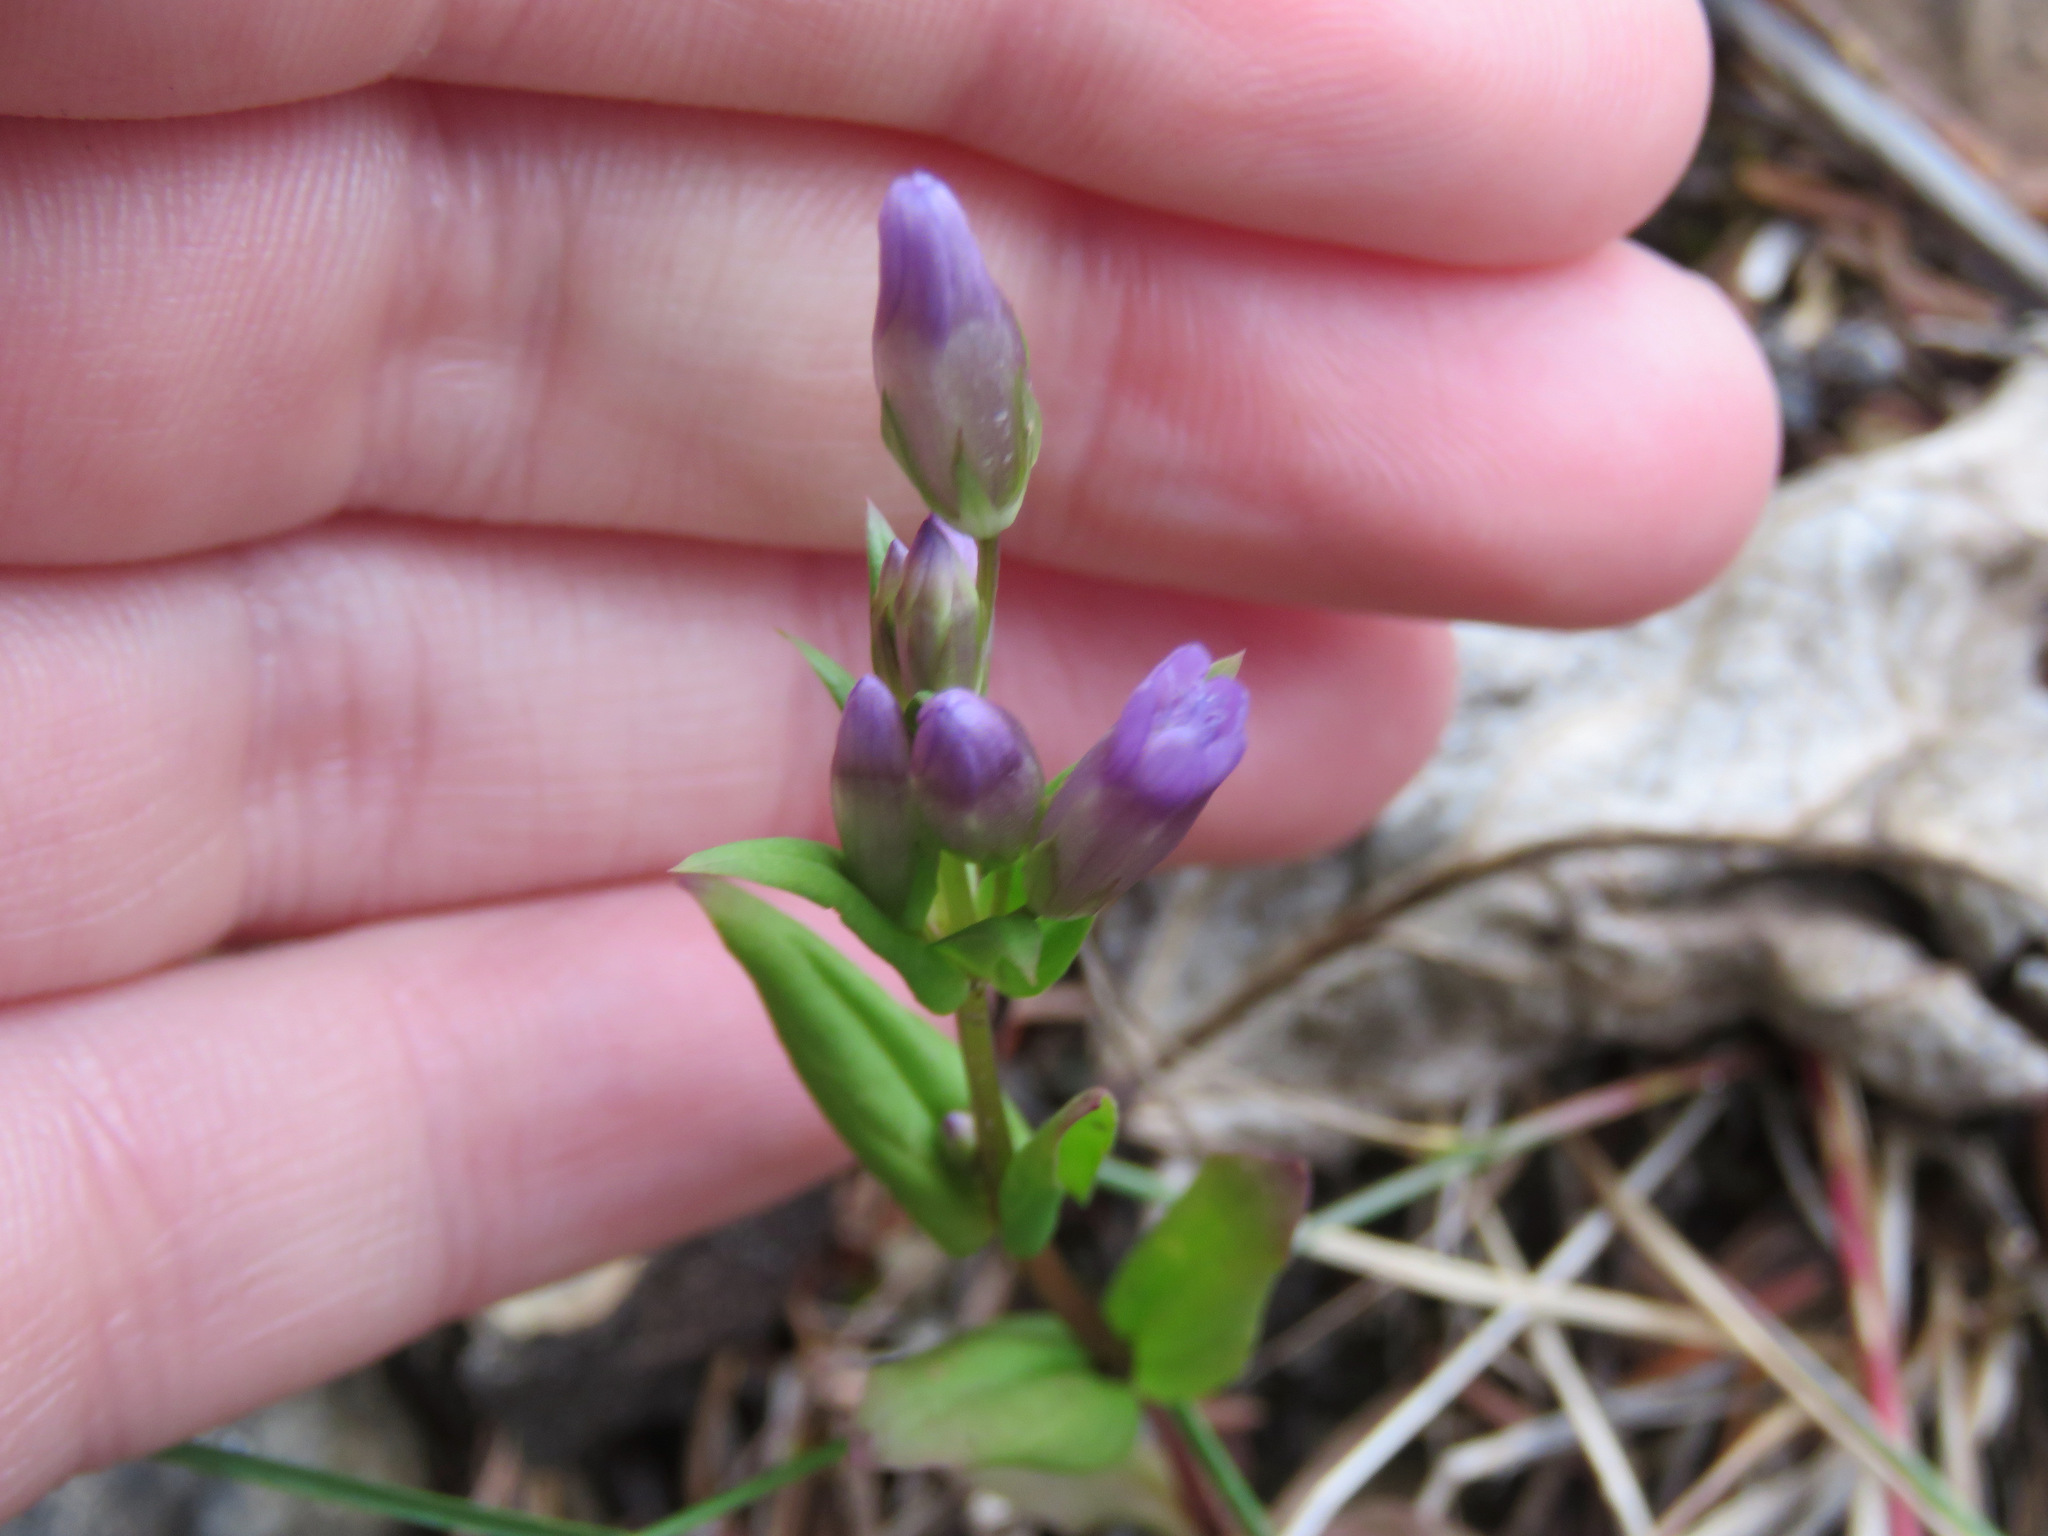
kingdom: Plantae
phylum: Tracheophyta
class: Magnoliopsida
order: Gentianales
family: Gentianaceae
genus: Gentianella
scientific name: Gentianella amarella
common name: Autumn gentian
